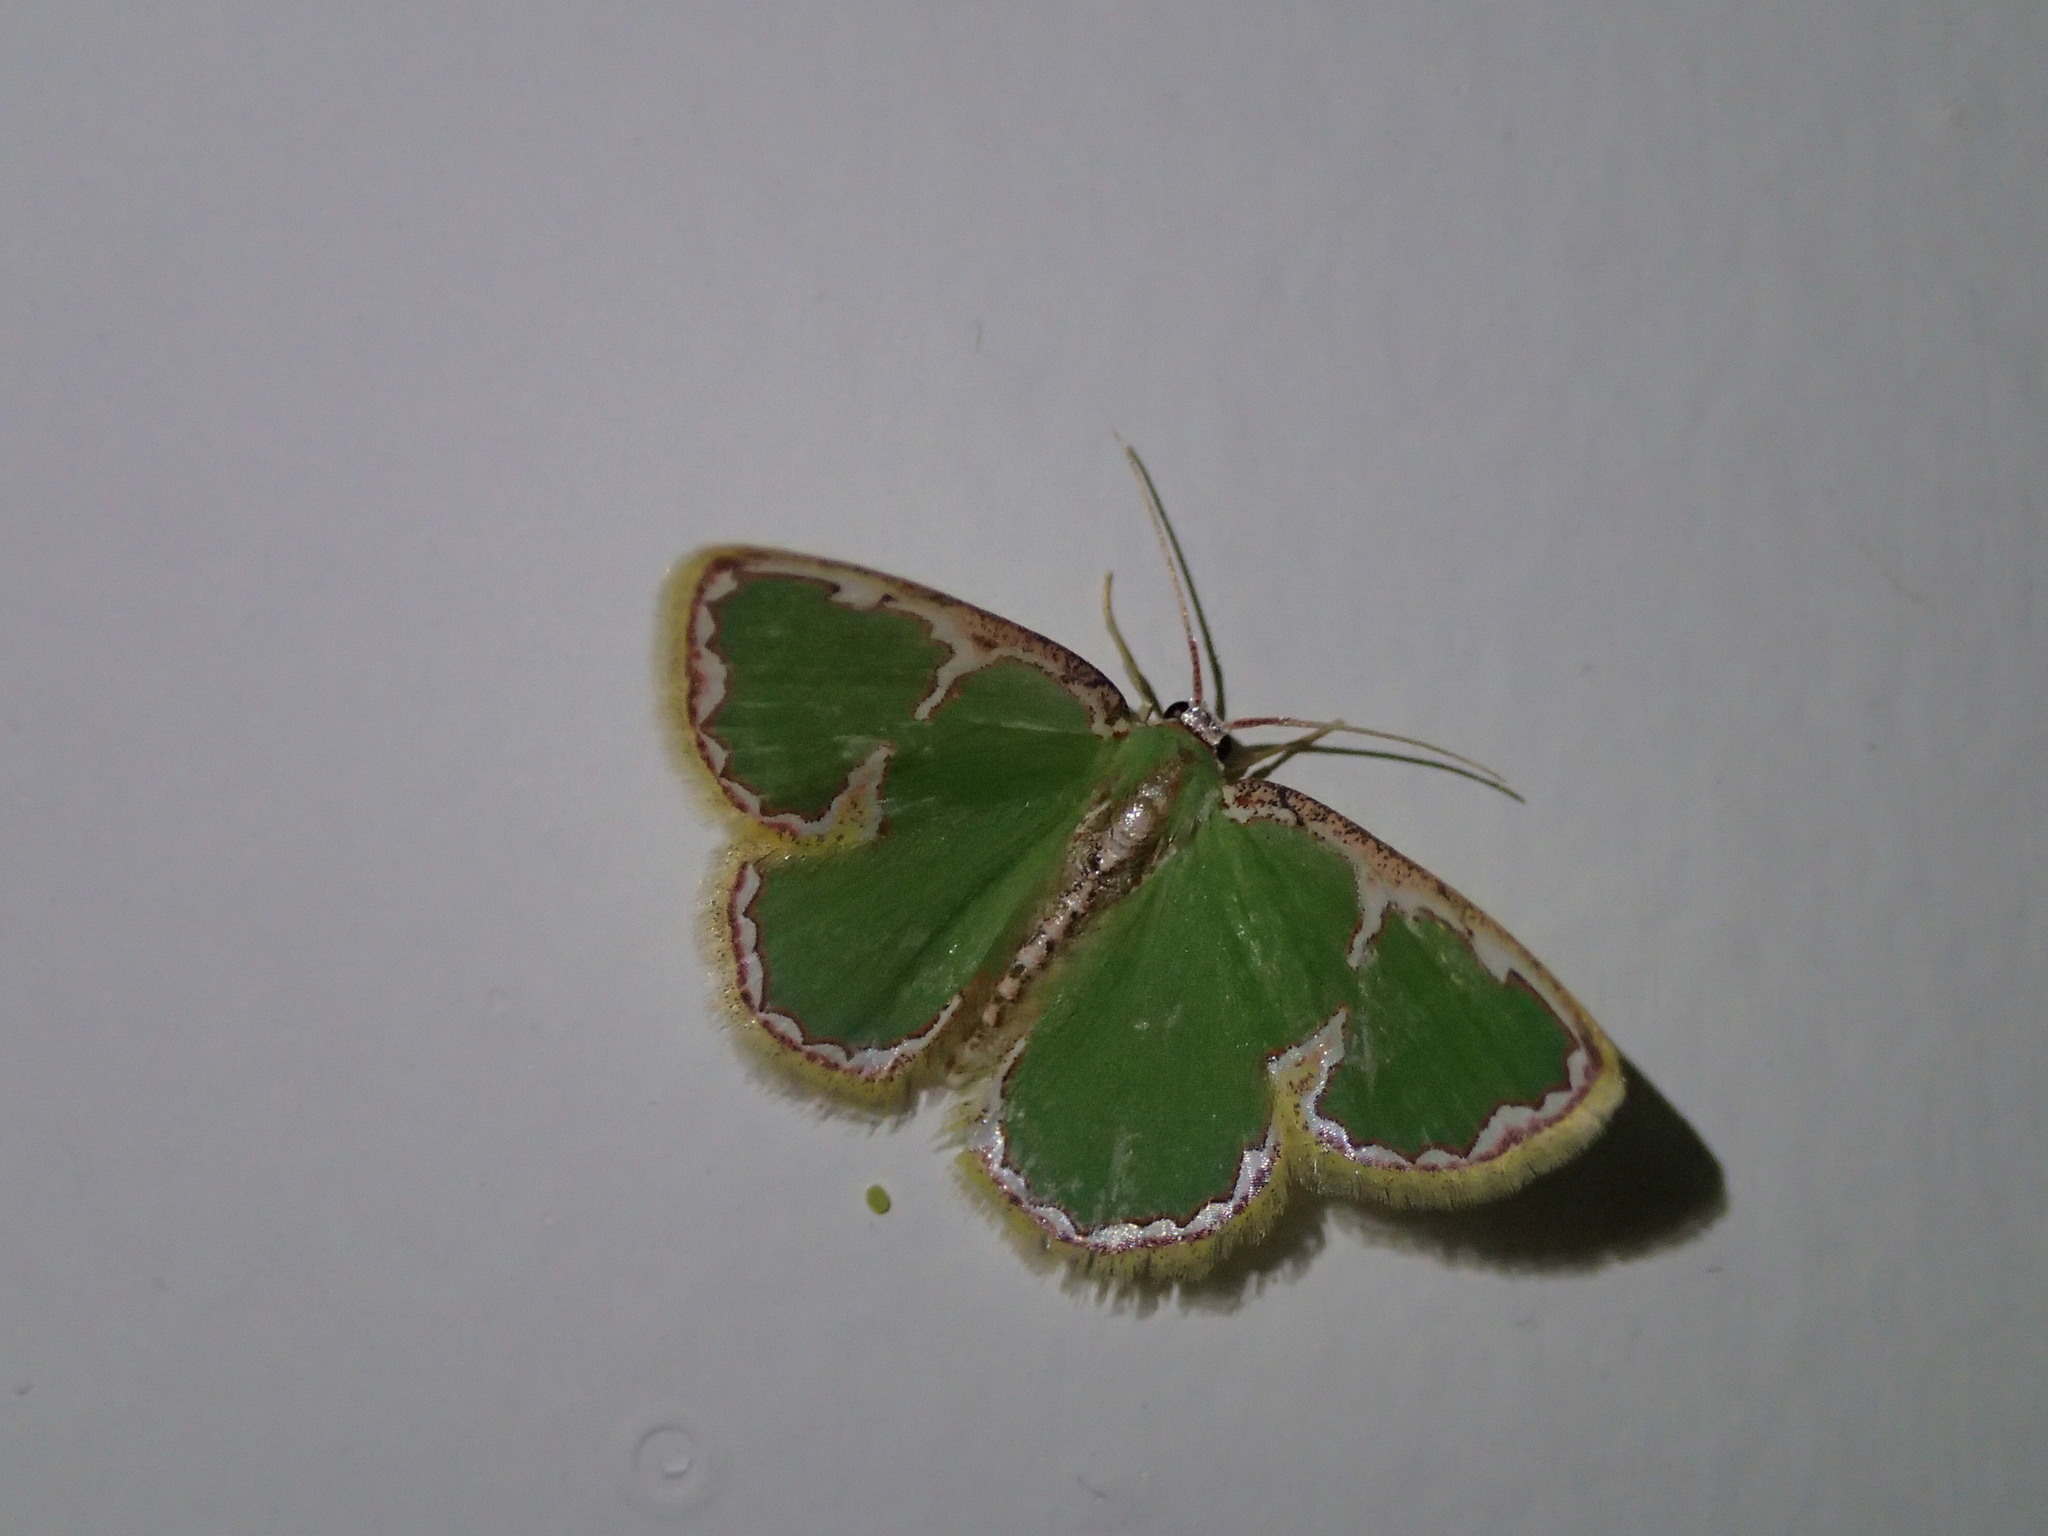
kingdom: Animalia
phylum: Arthropoda
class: Insecta
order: Lepidoptera
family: Geometridae
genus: Comostola
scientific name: Comostola chlorargyra
